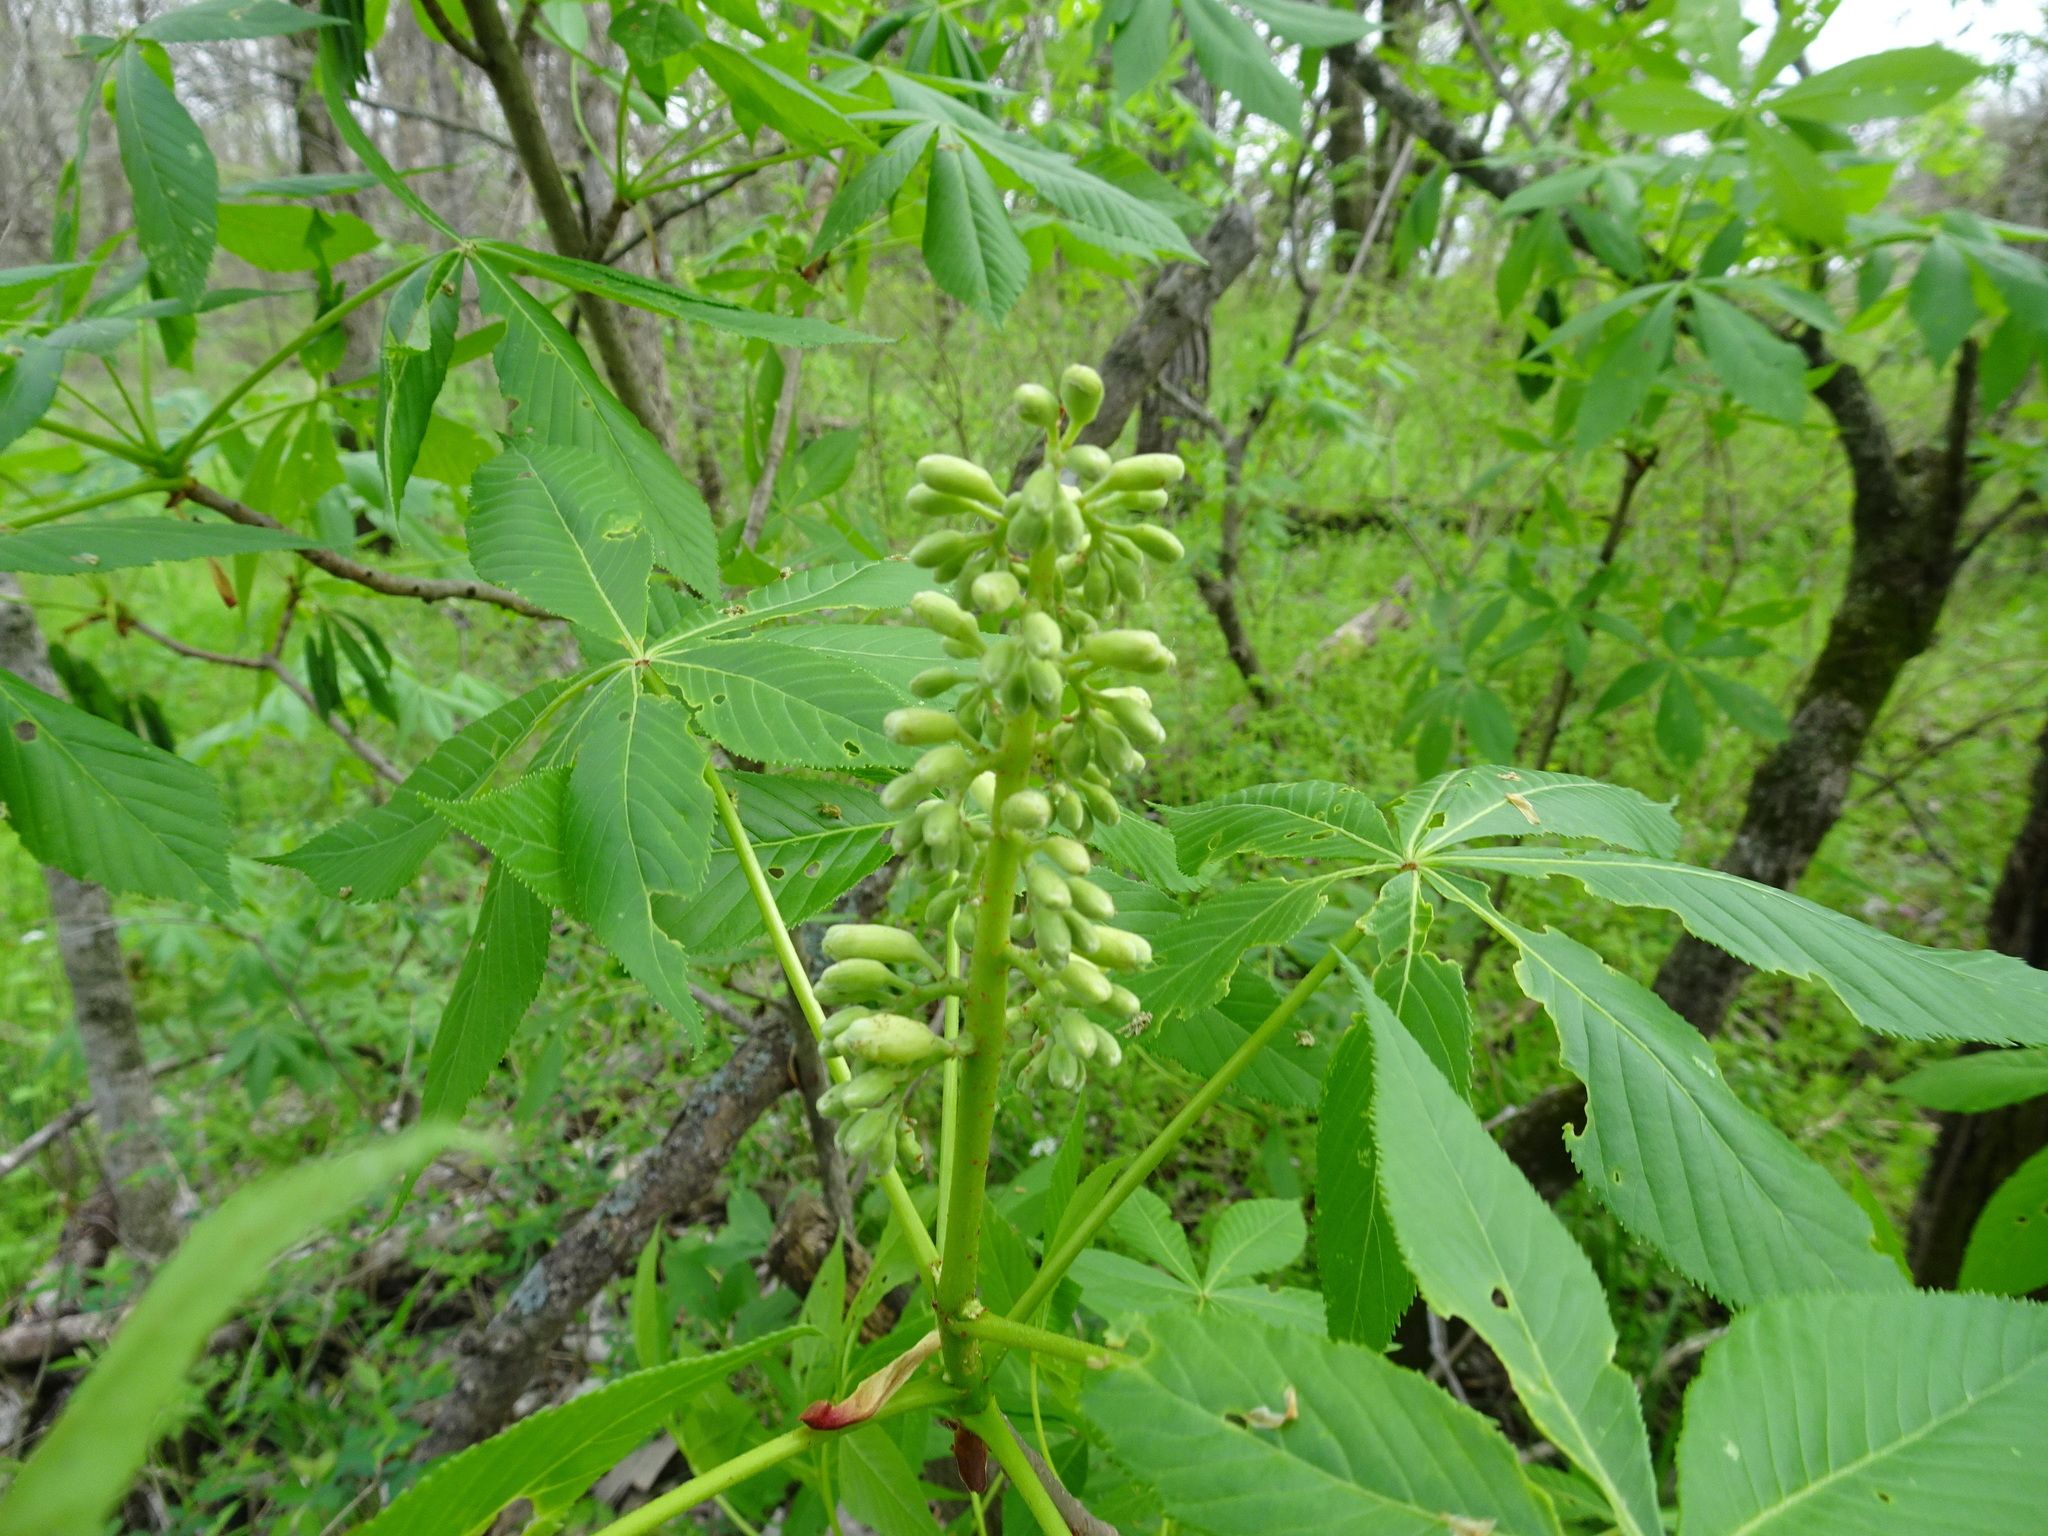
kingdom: Plantae
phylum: Tracheophyta
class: Magnoliopsida
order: Sapindales
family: Sapindaceae
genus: Aesculus
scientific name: Aesculus glabra
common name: Ohio buckeye
